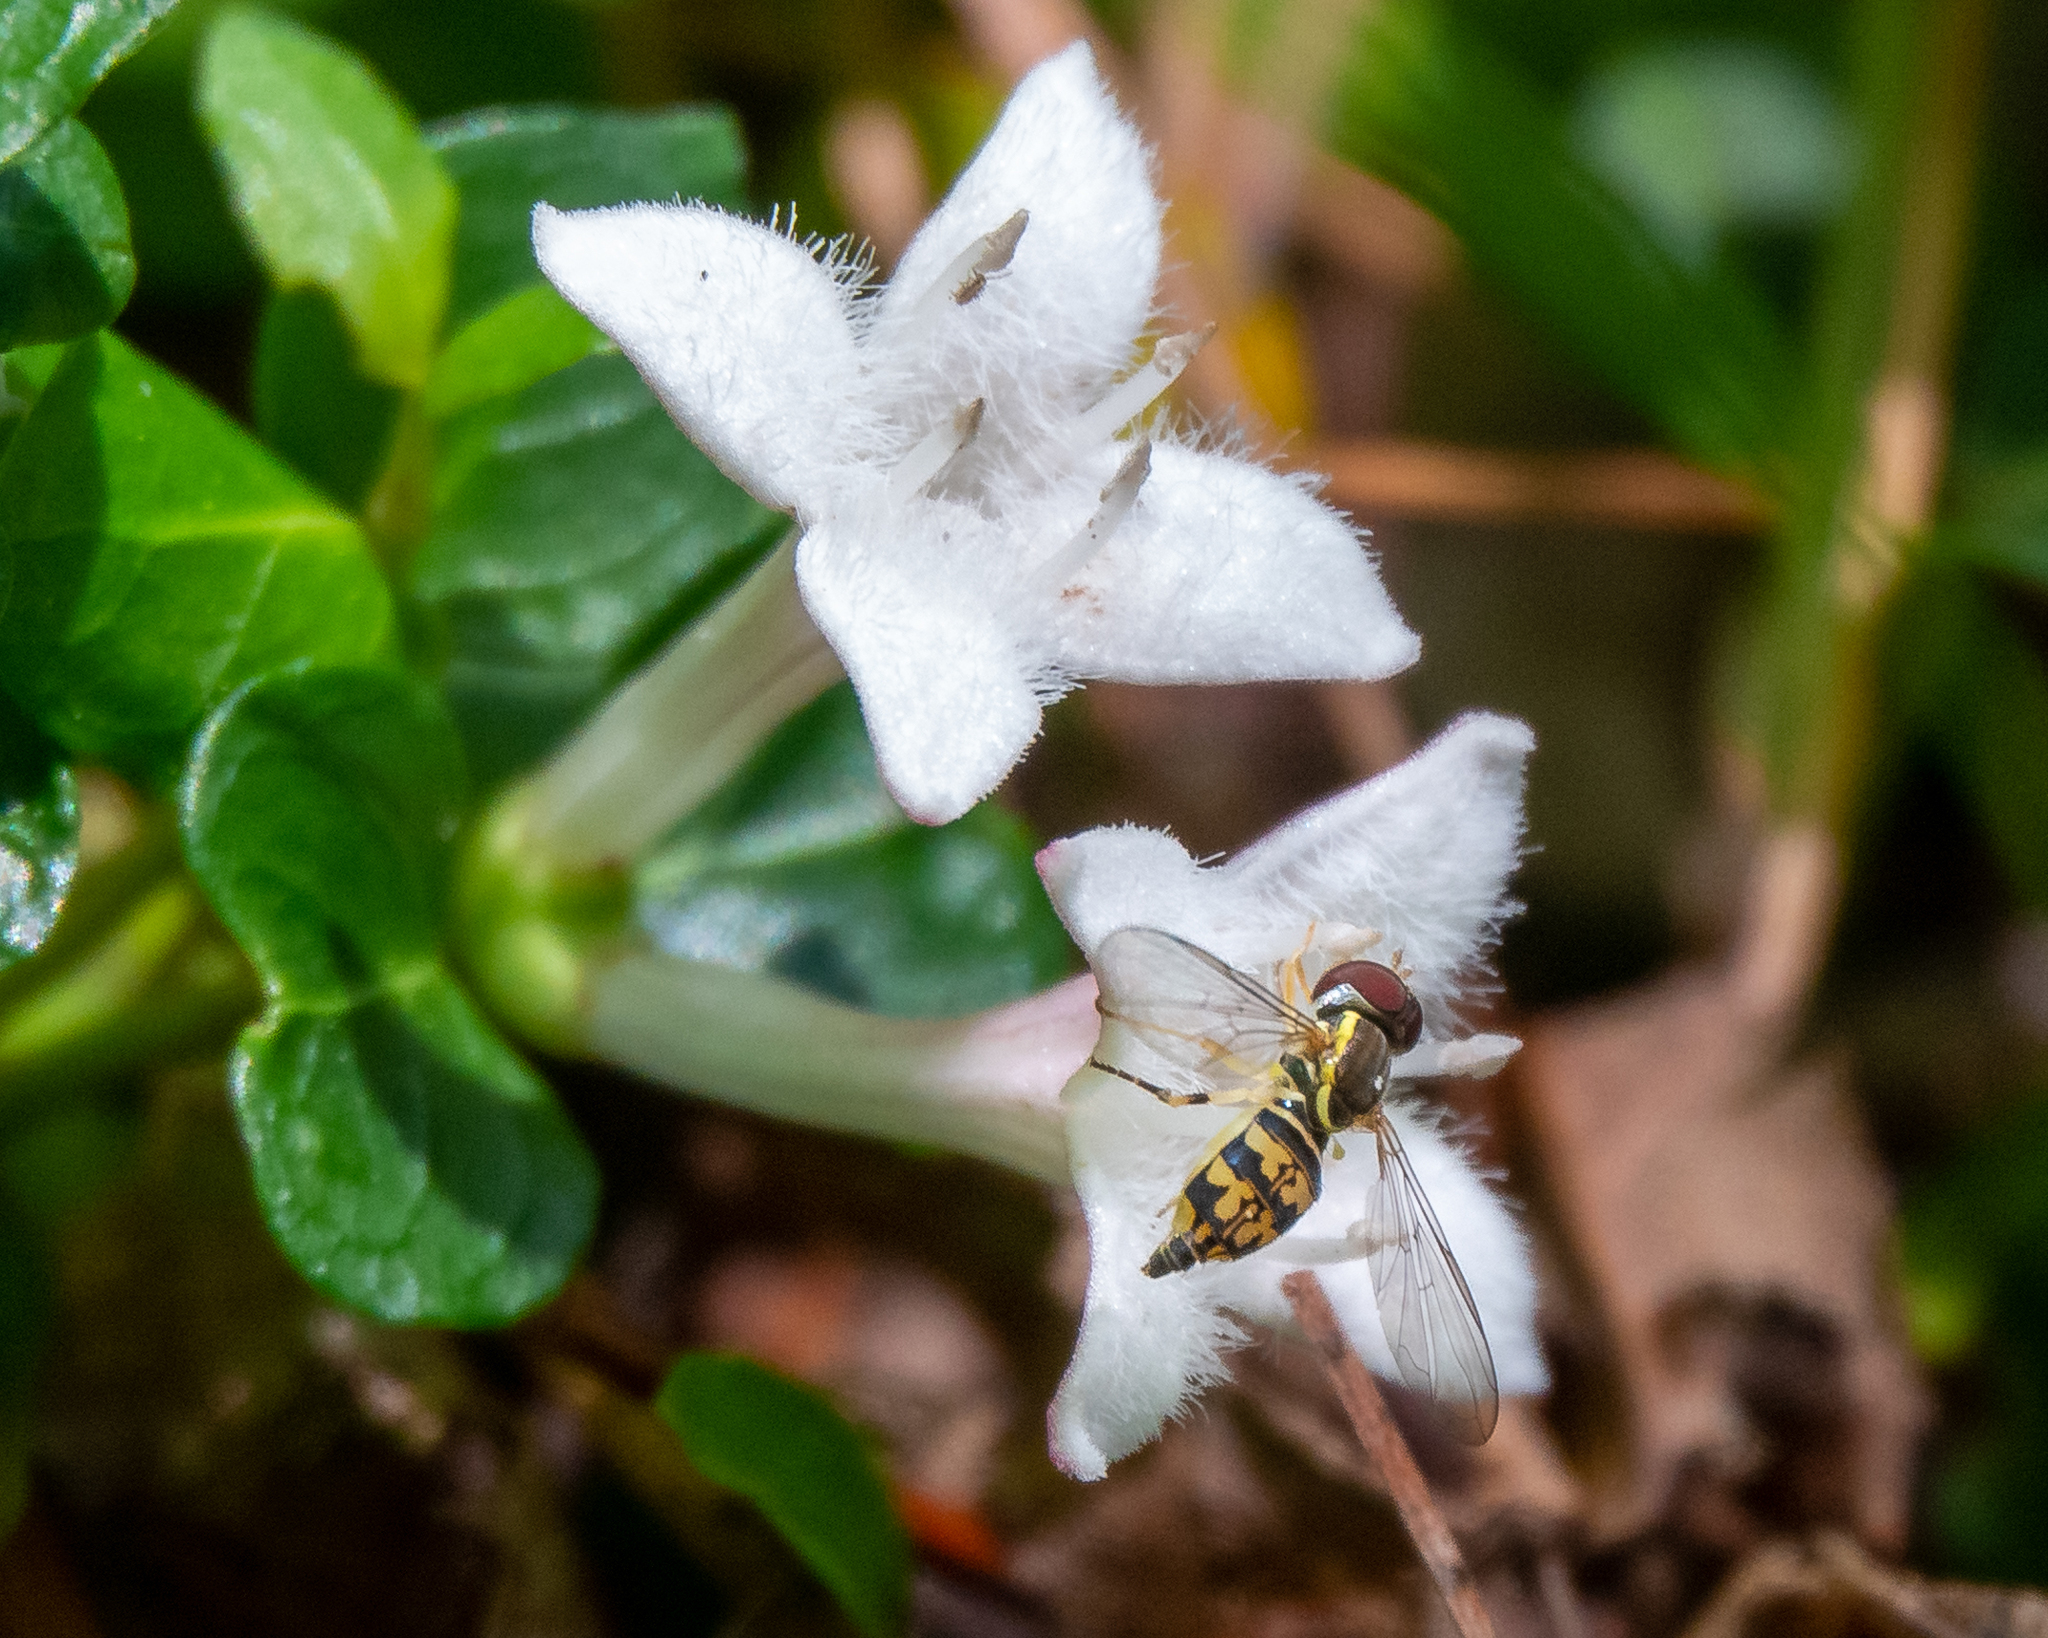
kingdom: Animalia
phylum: Arthropoda
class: Insecta
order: Diptera
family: Syrphidae
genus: Toxomerus
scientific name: Toxomerus geminatus
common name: Eastern calligrapher
